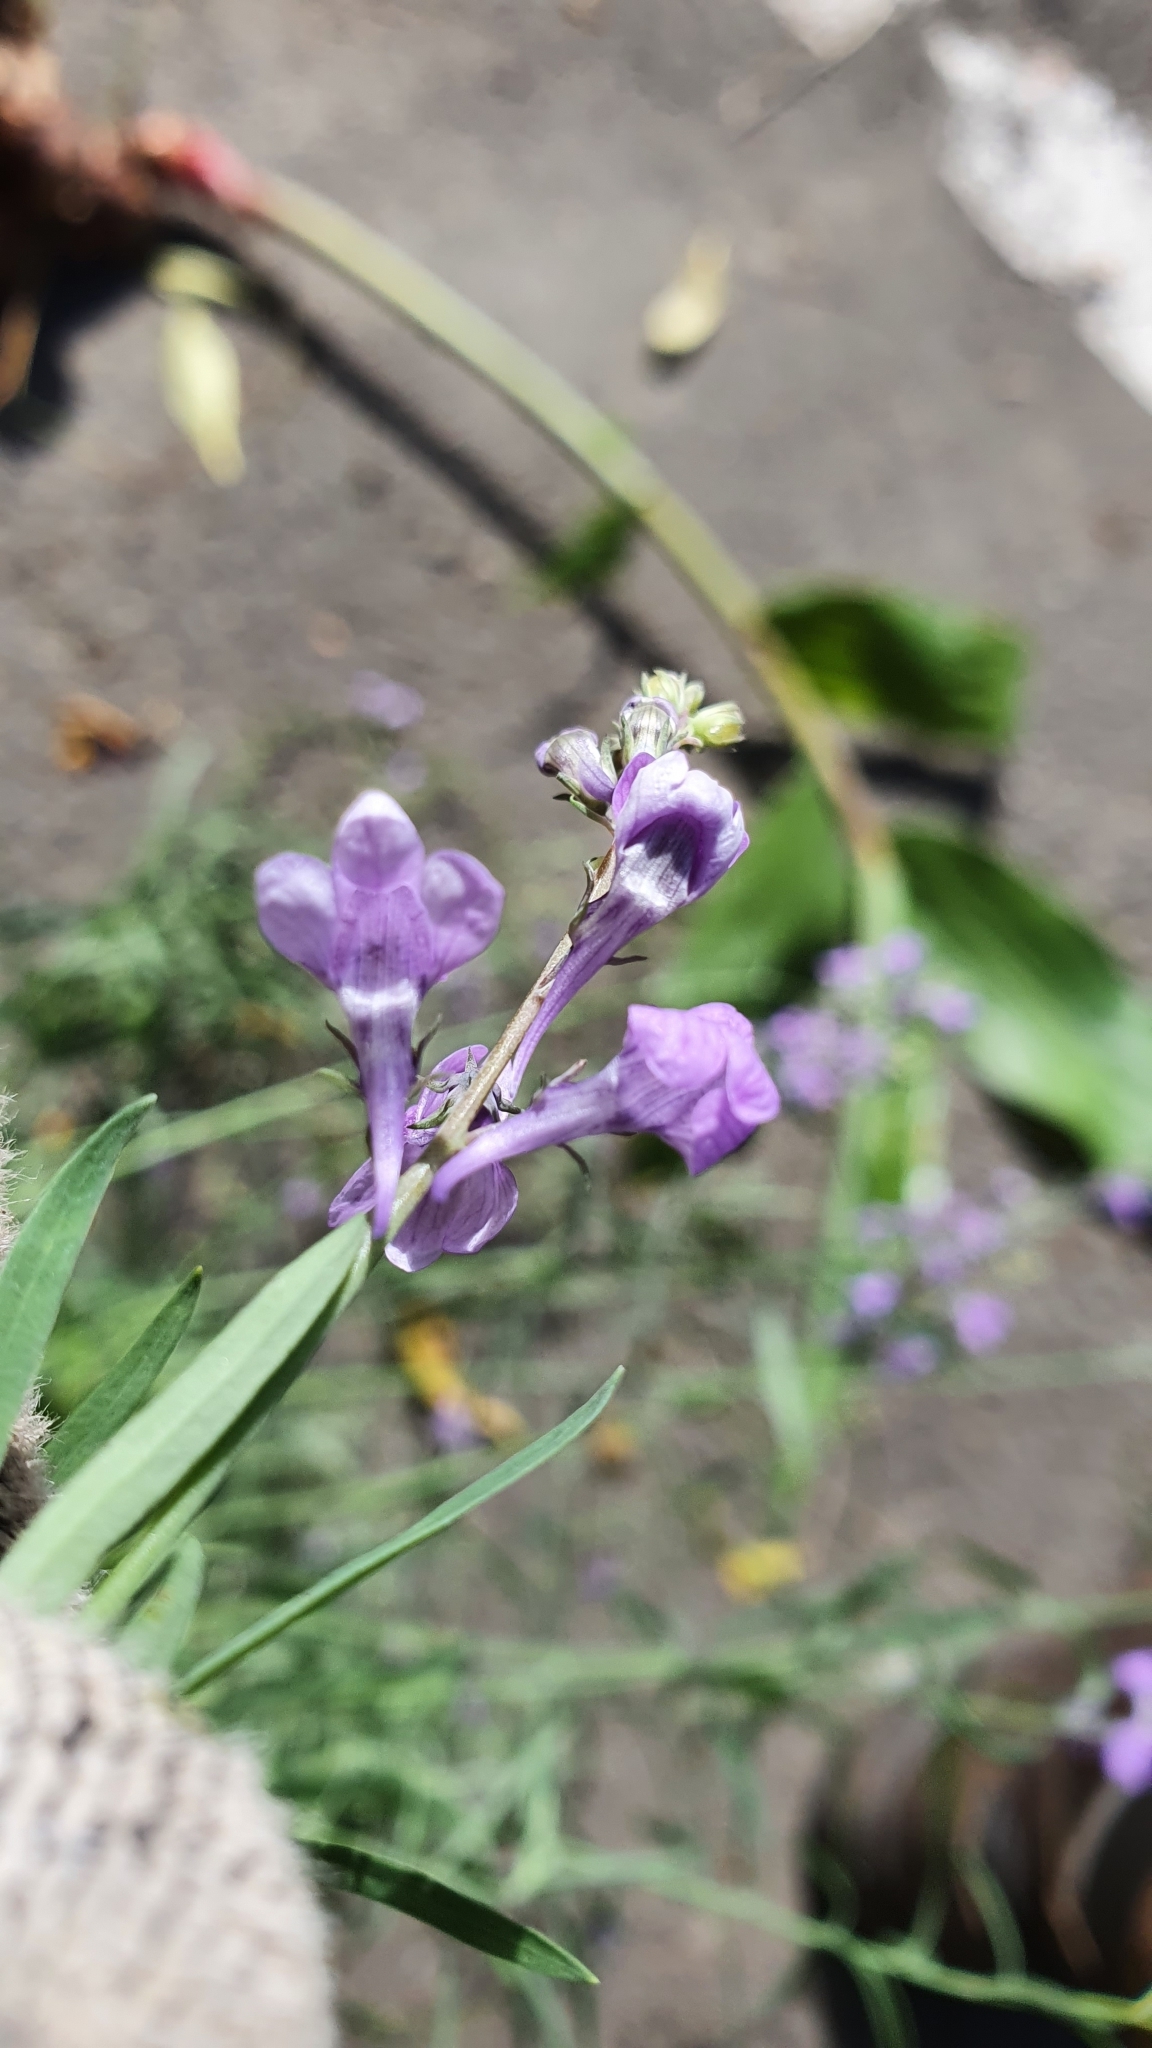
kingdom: Plantae
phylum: Tracheophyta
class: Magnoliopsida
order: Lamiales
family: Plantaginaceae
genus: Linaria
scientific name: Linaria purpurea
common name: Purple toadflax
